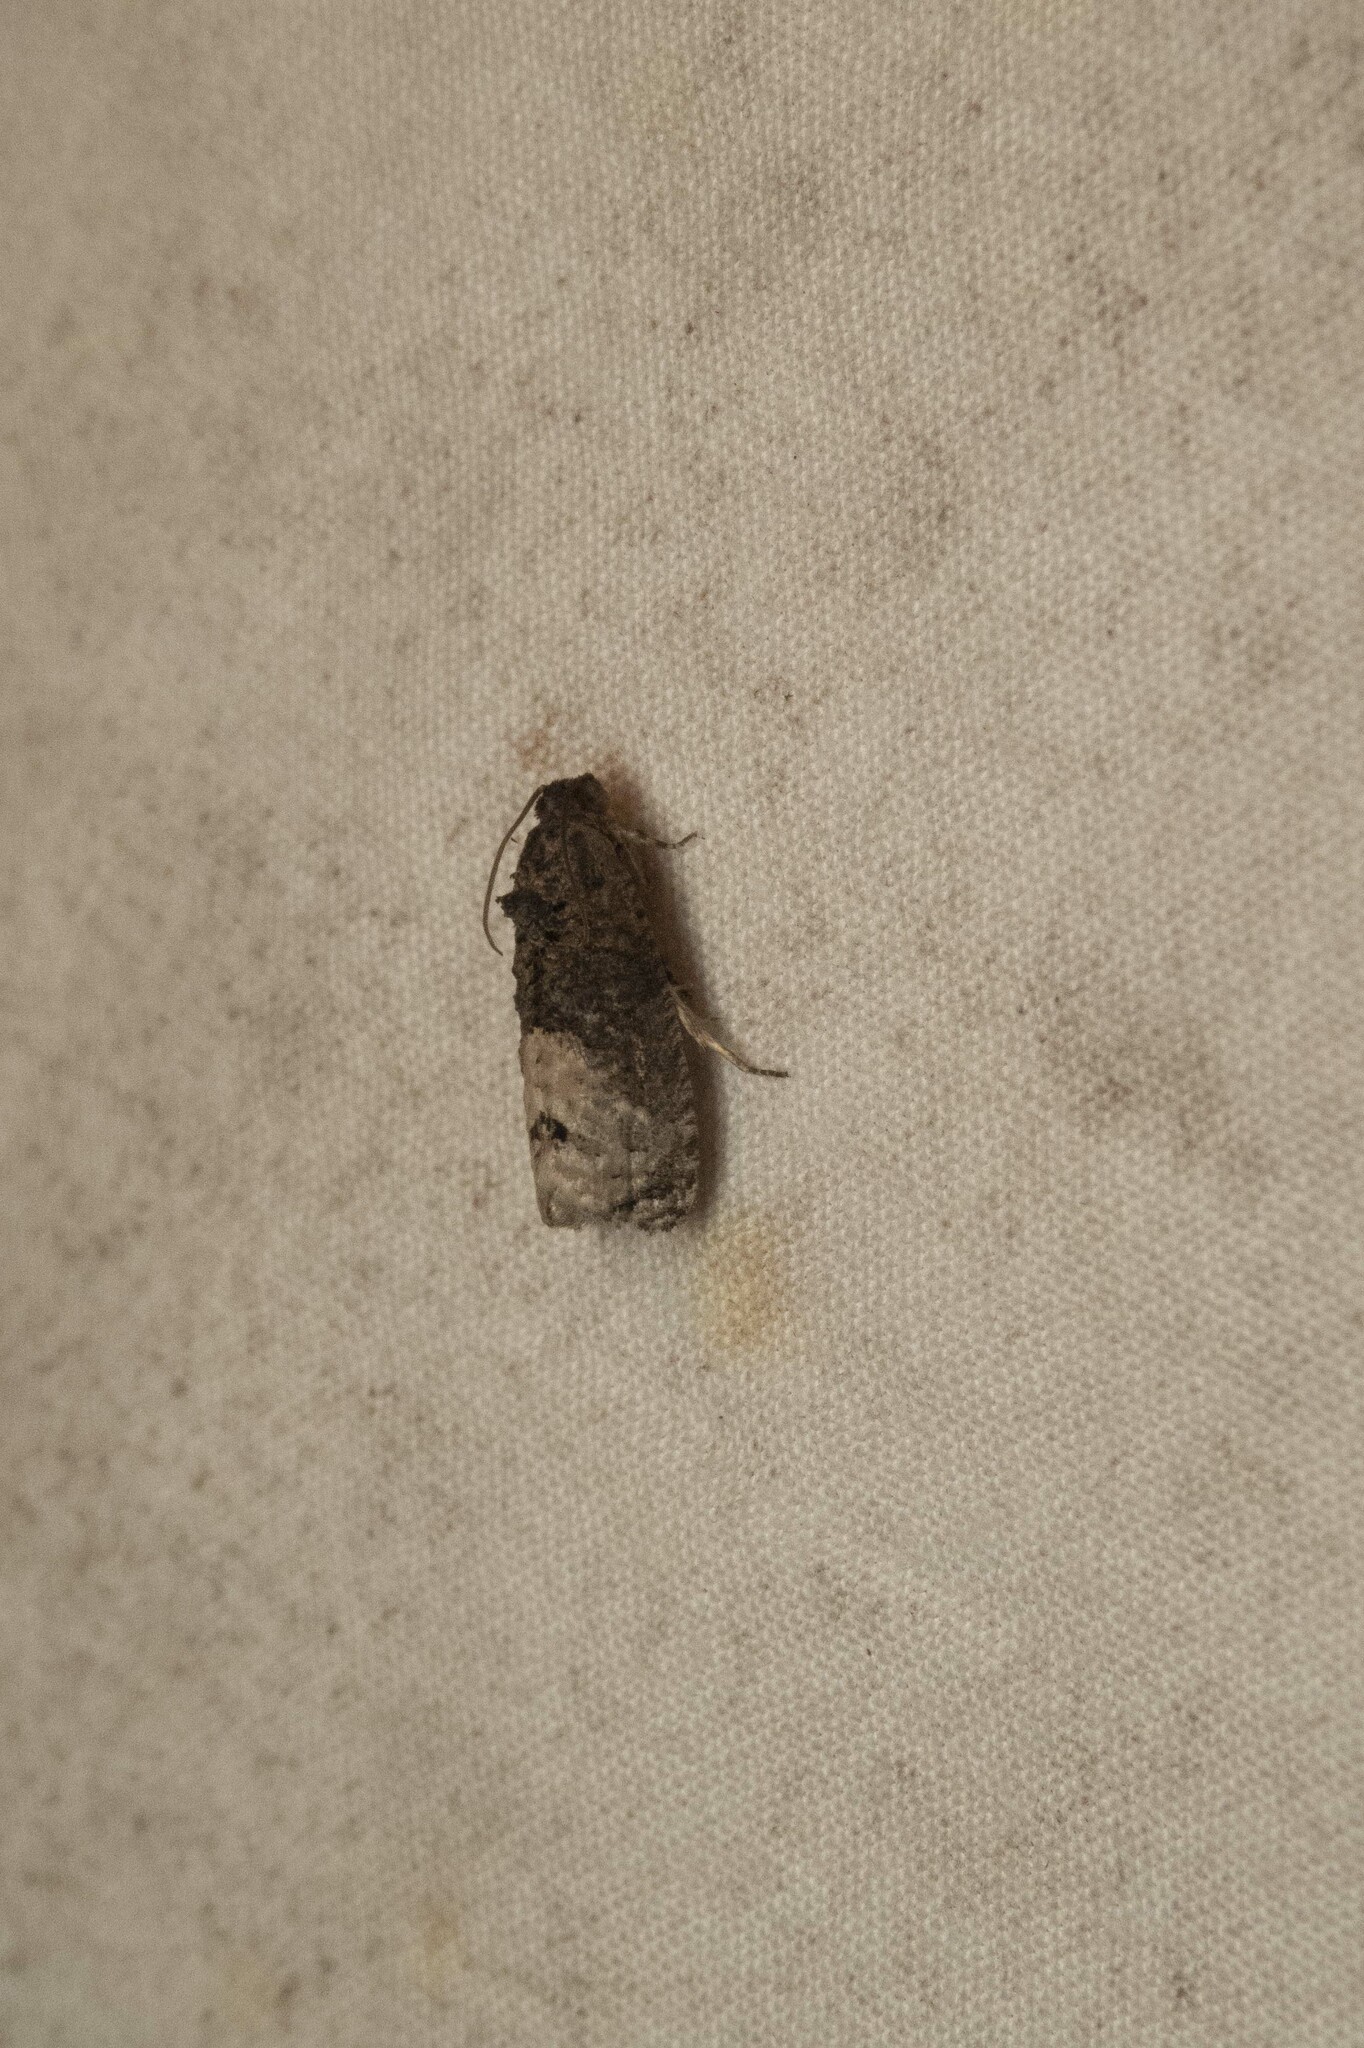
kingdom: Animalia
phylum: Arthropoda
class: Insecta
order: Lepidoptera
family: Tortricidae
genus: Ecdytolopha
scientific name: Ecdytolopha insiticiana
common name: Locust twig borer moth
